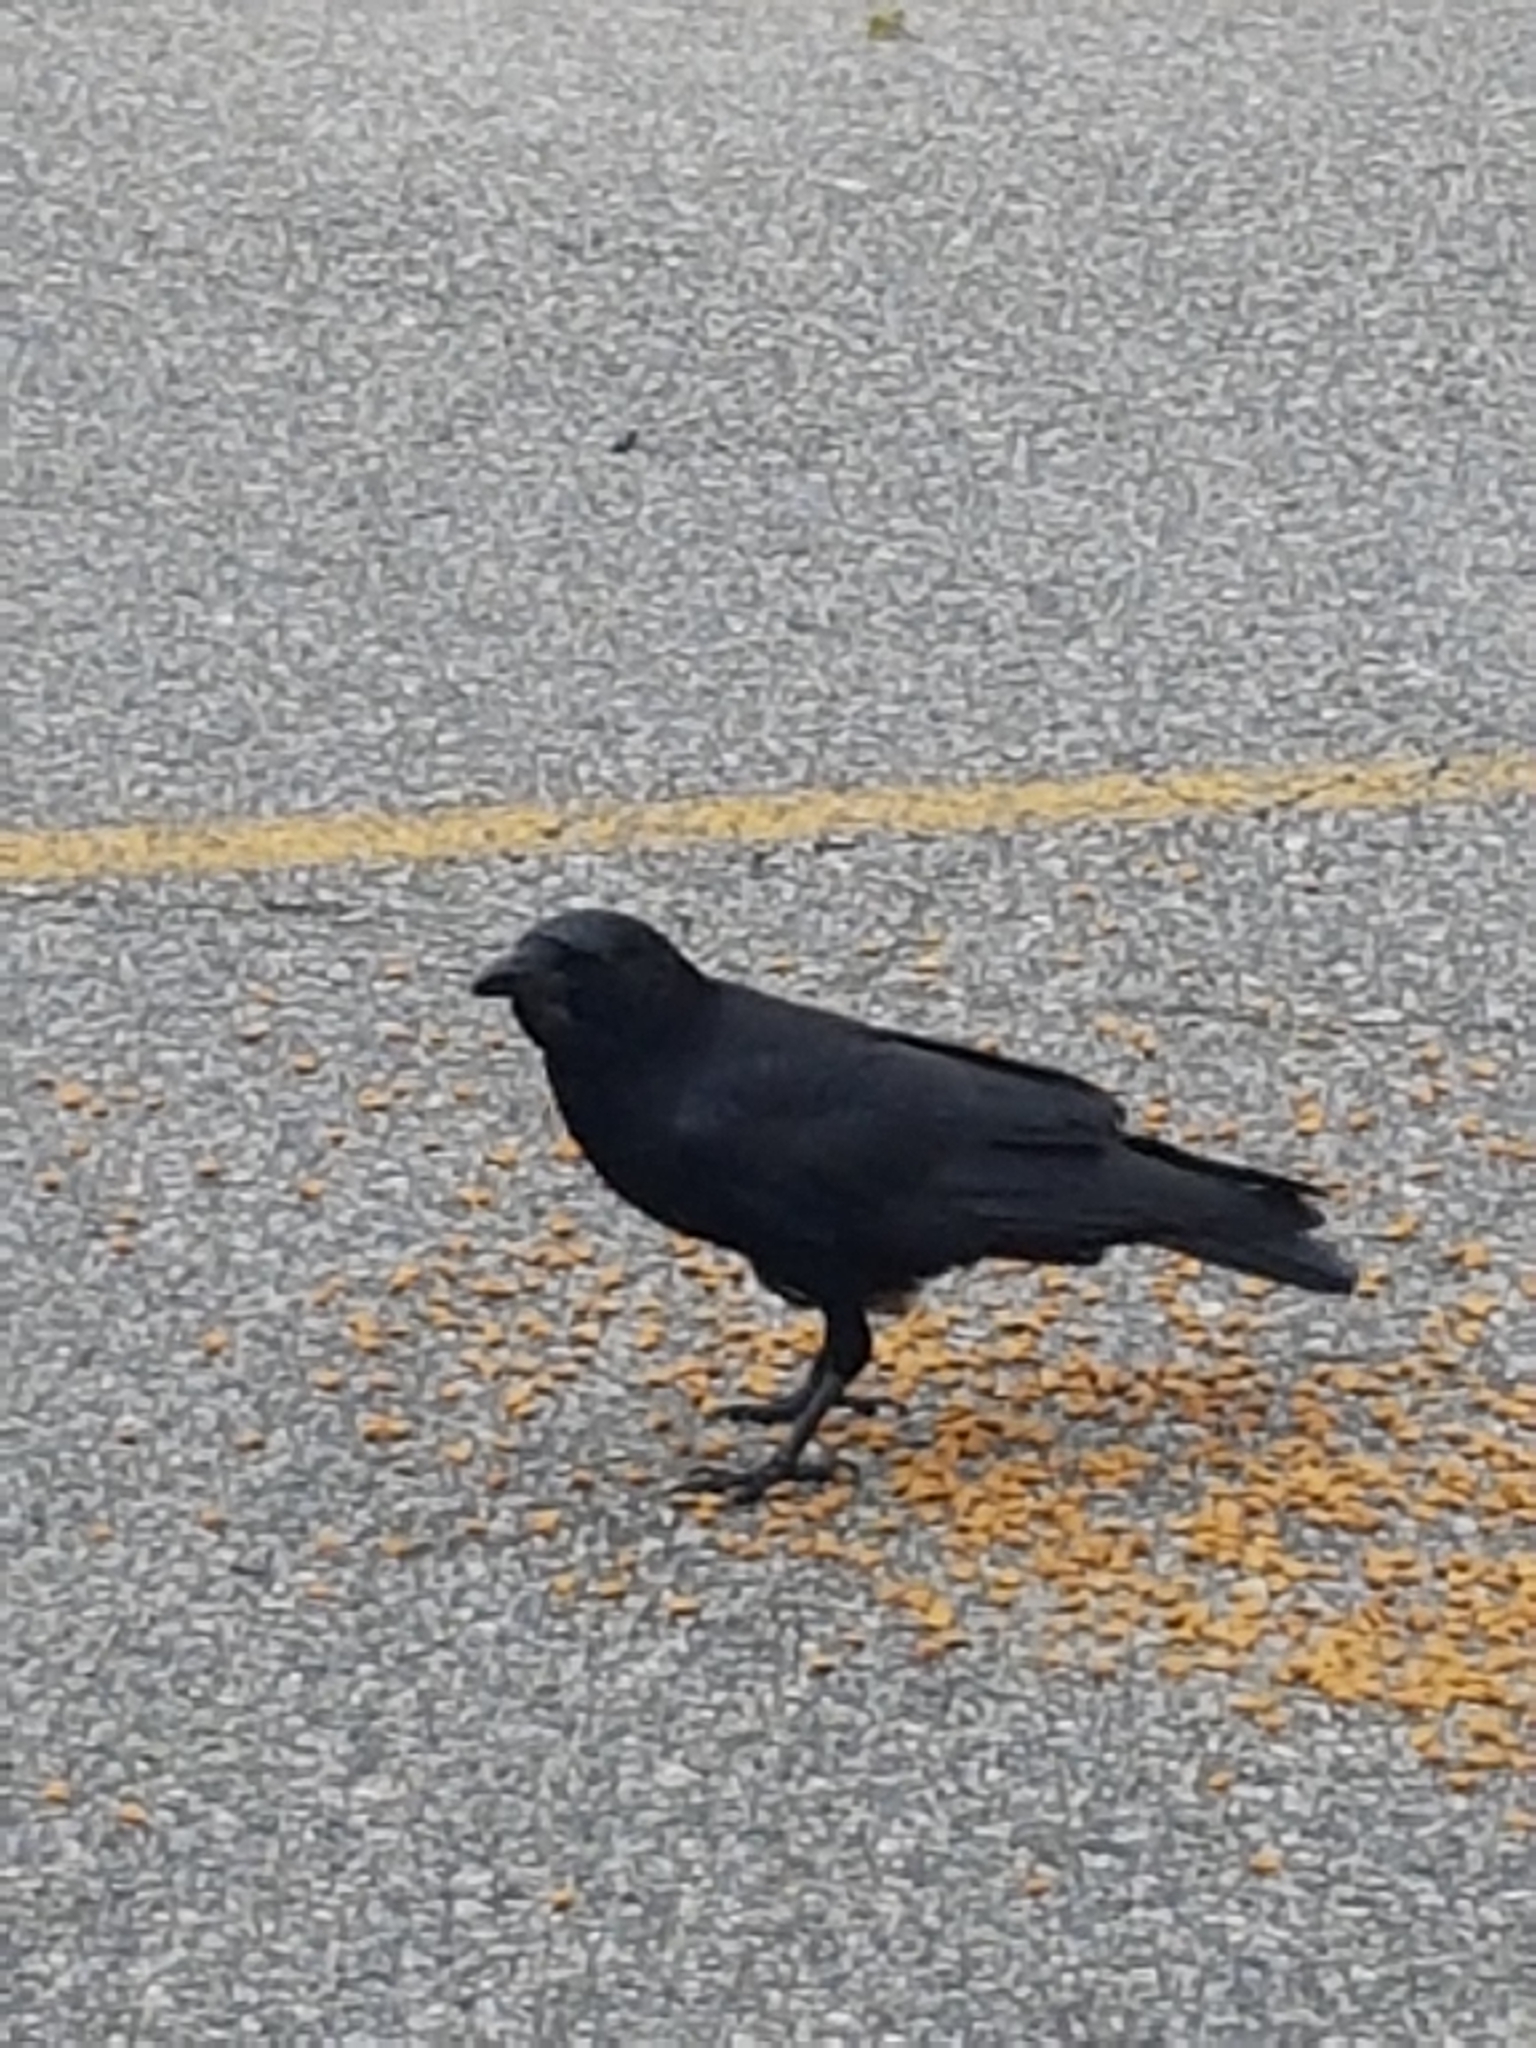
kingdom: Animalia
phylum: Chordata
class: Aves
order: Passeriformes
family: Corvidae
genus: Corvus
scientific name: Corvus brachyrhynchos
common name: American crow
